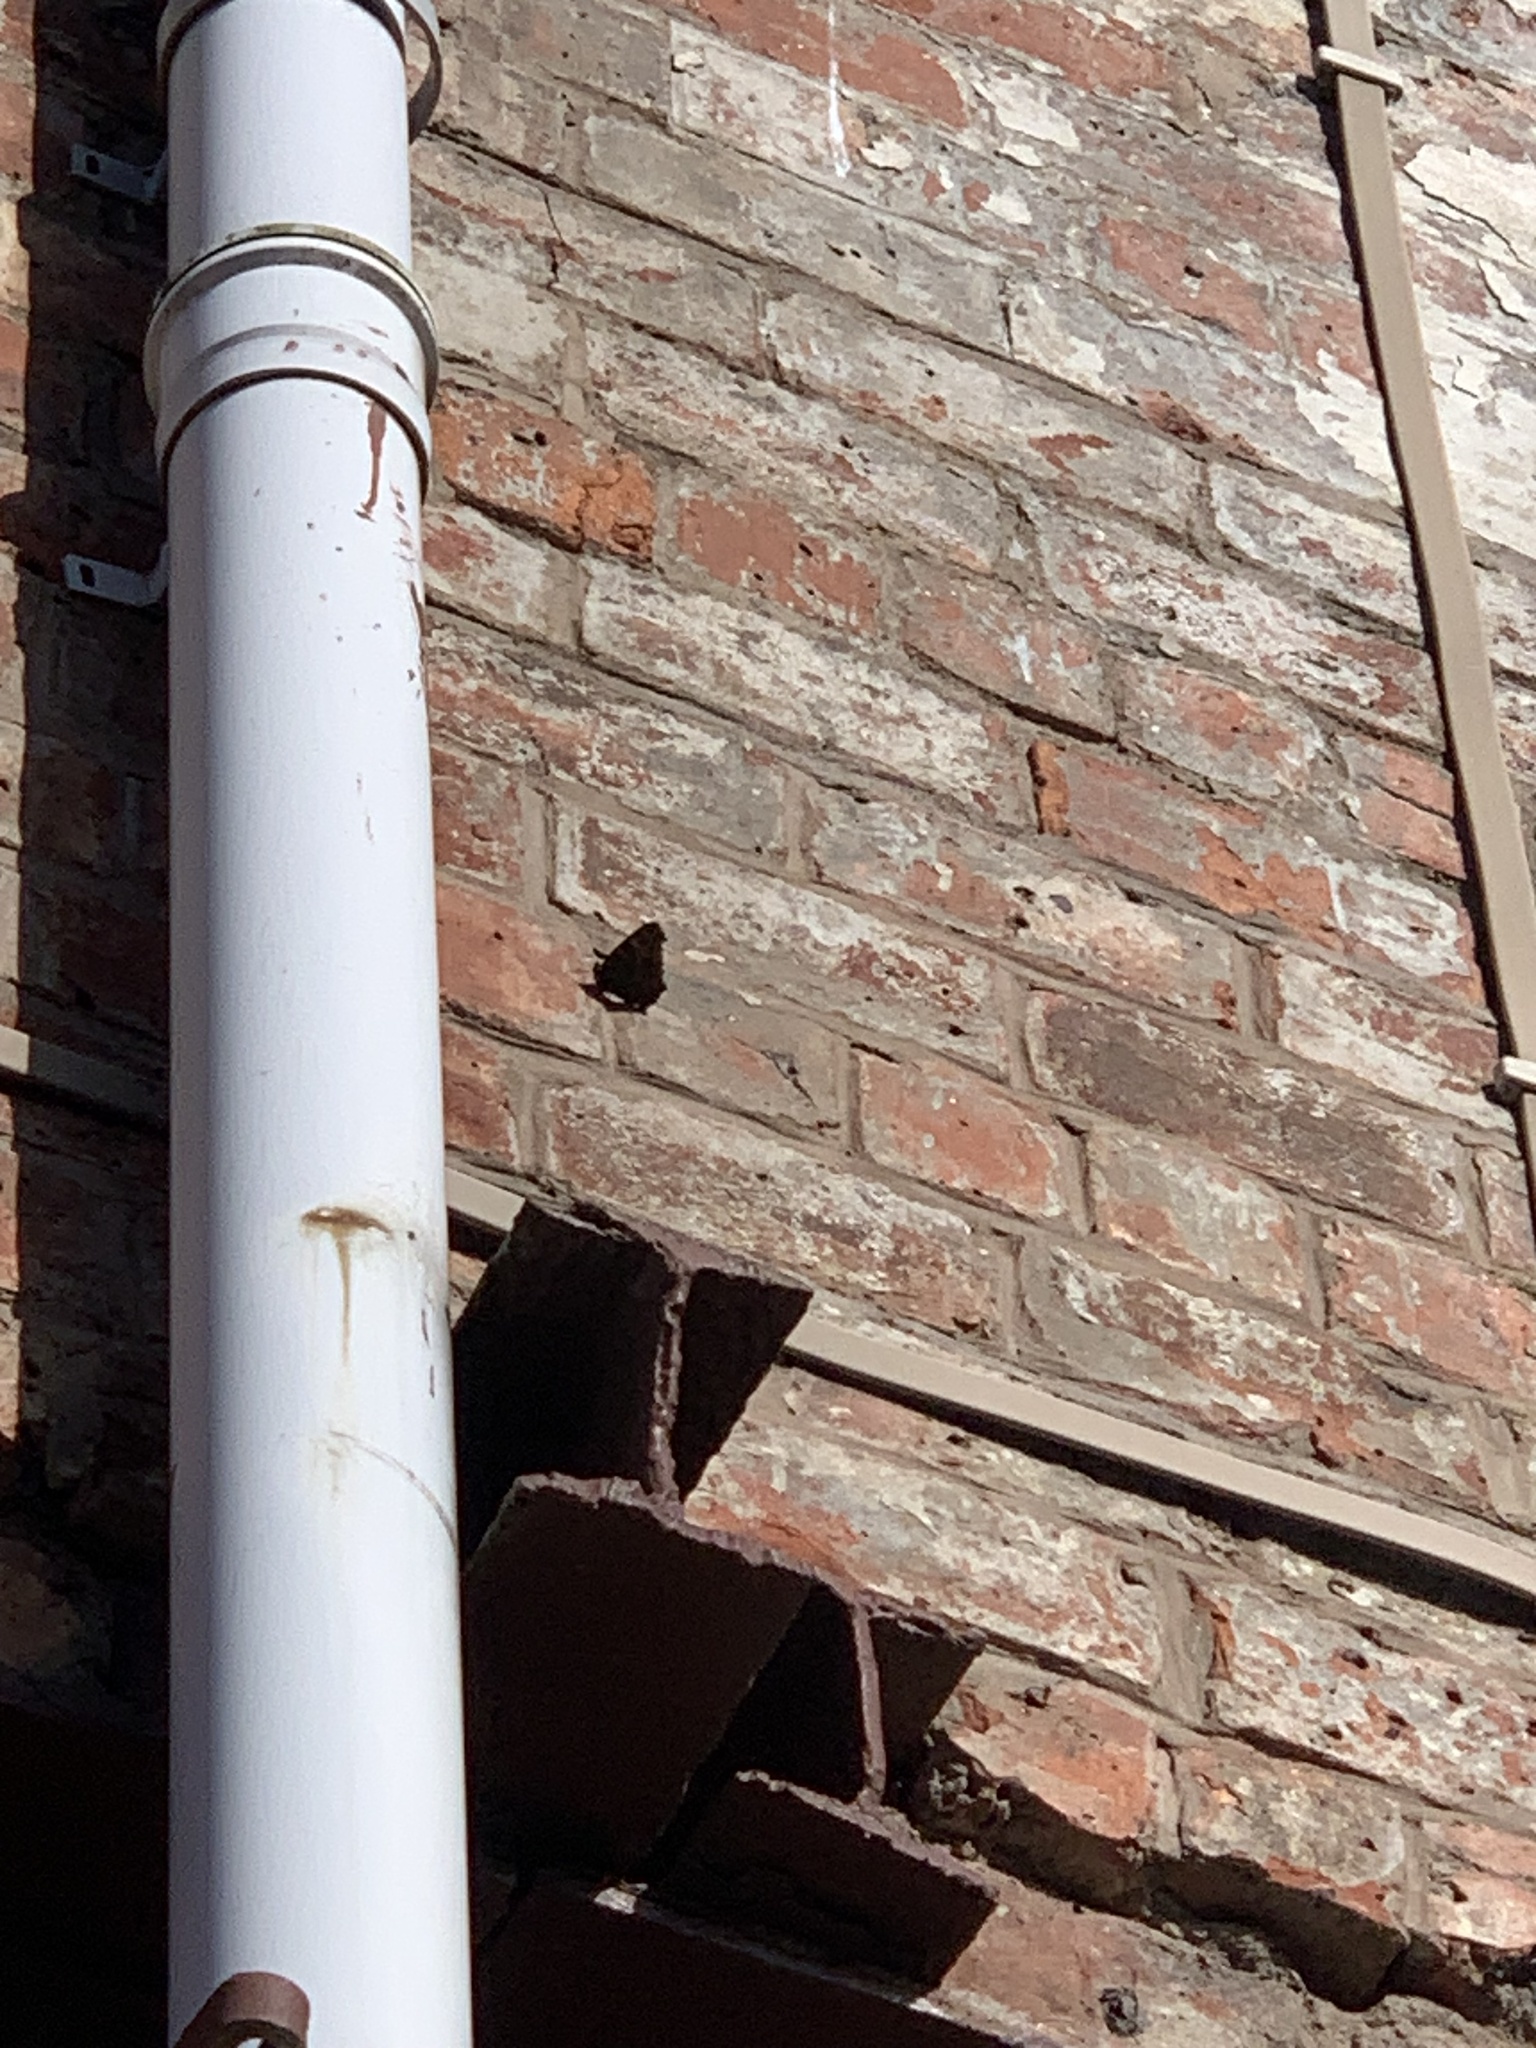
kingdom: Animalia
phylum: Arthropoda
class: Insecta
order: Lepidoptera
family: Nymphalidae
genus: Aglais
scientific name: Aglais io
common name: Peacock
